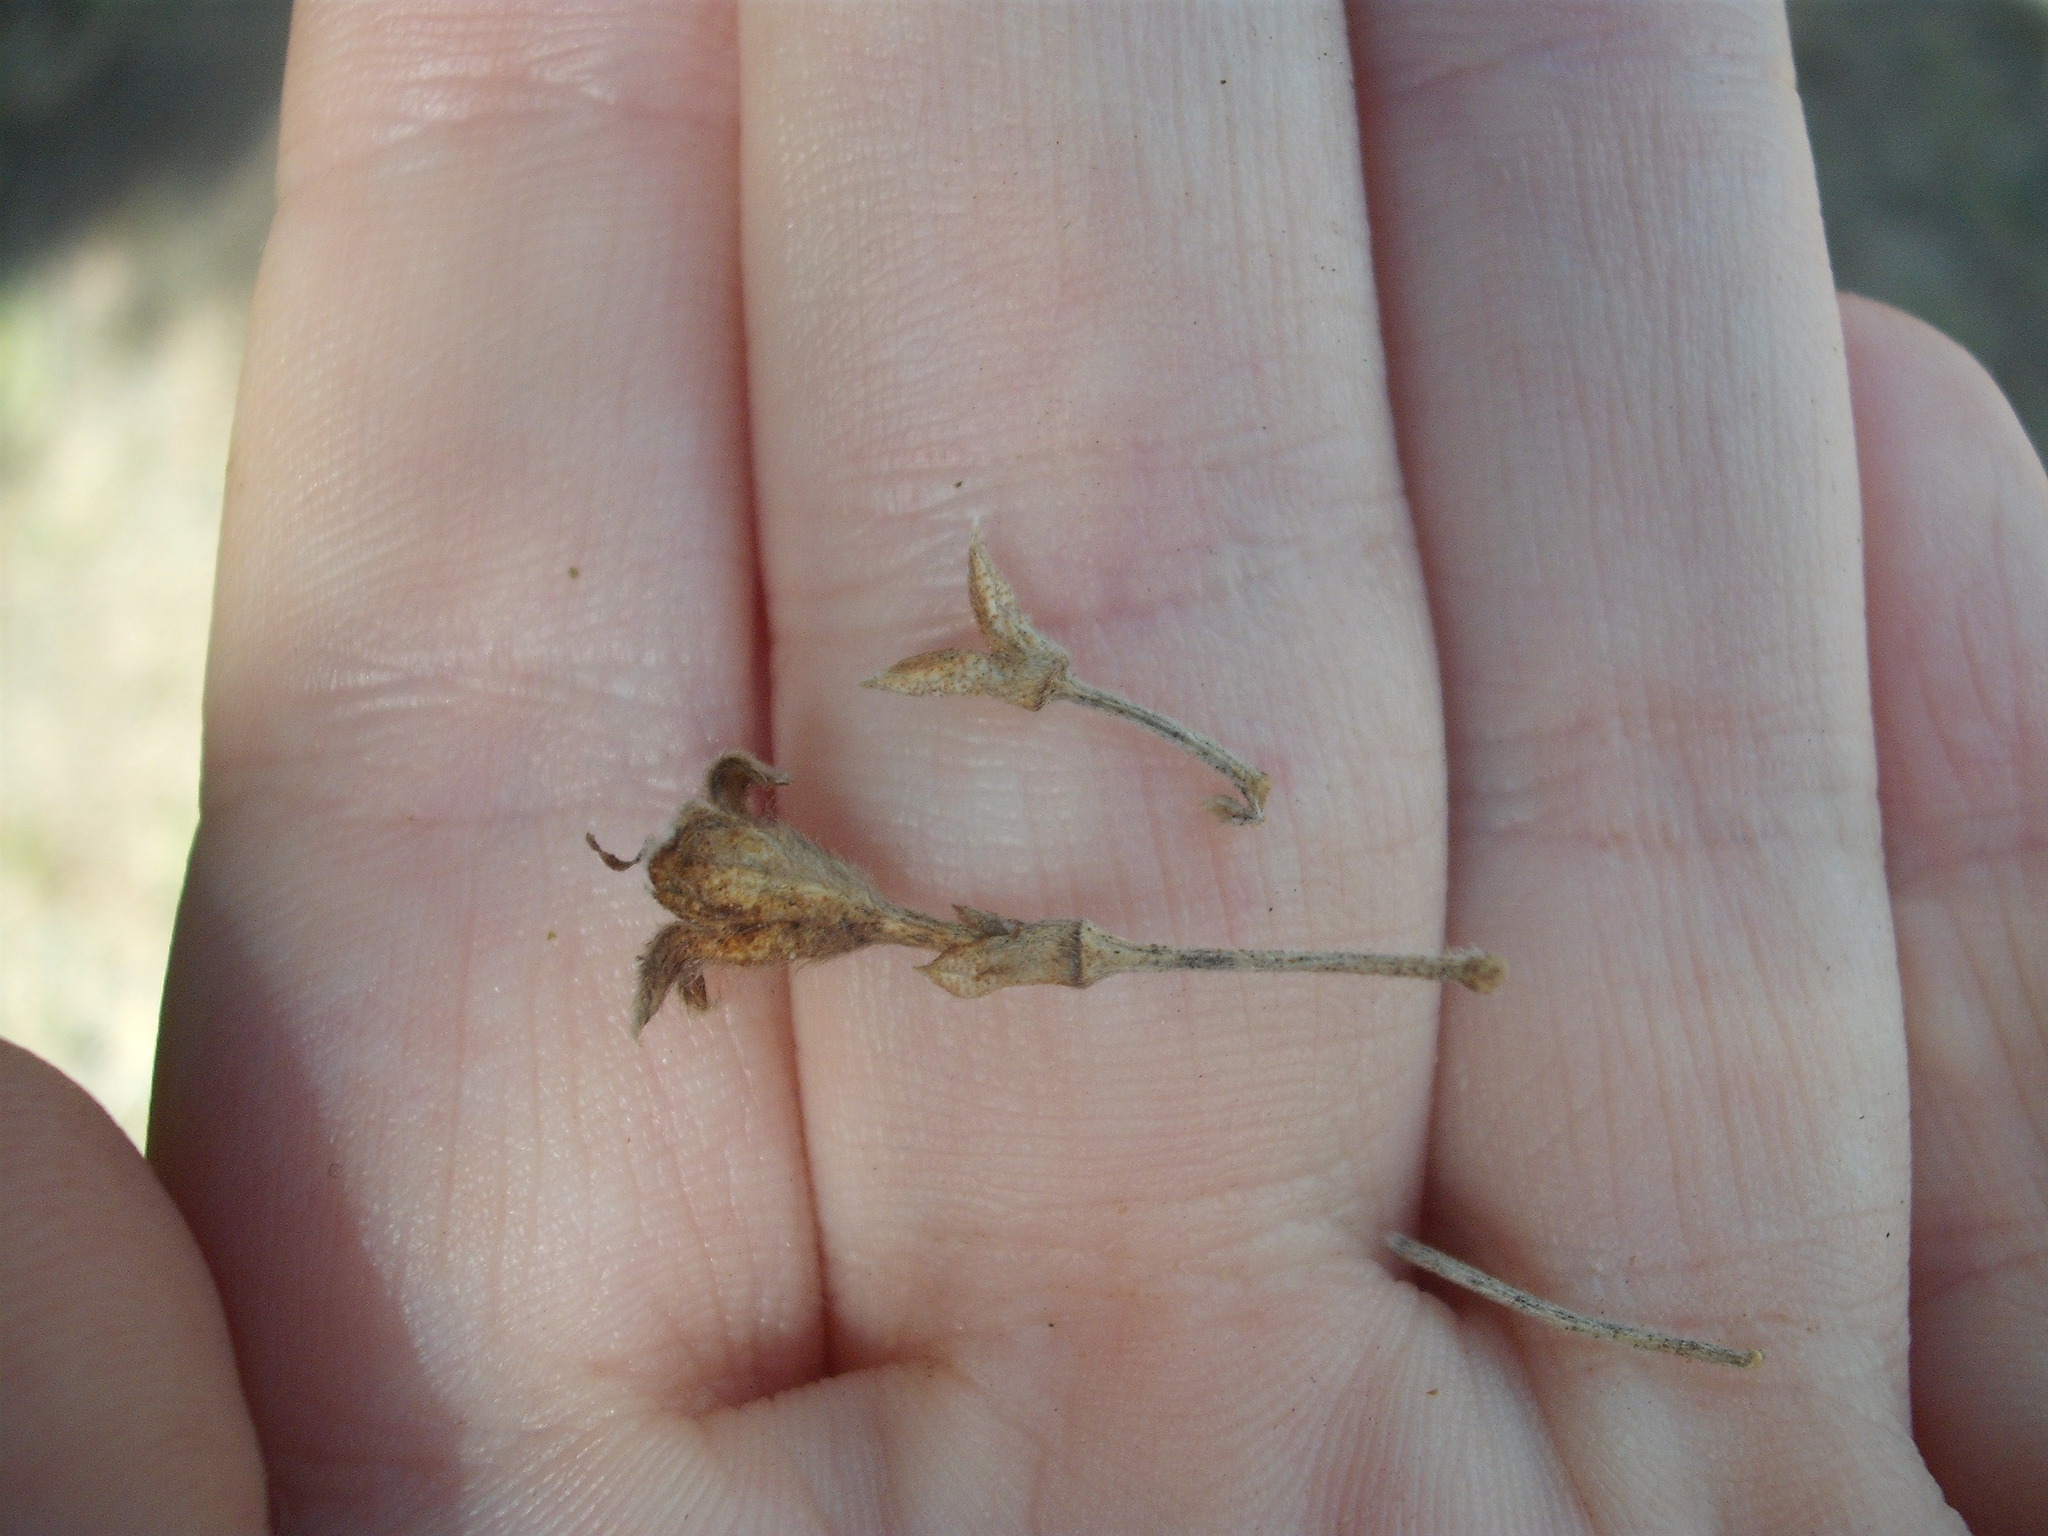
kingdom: Plantae
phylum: Tracheophyta
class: Magnoliopsida
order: Fabales
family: Fabaceae
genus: Psoralea
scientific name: Psoralea arborea
